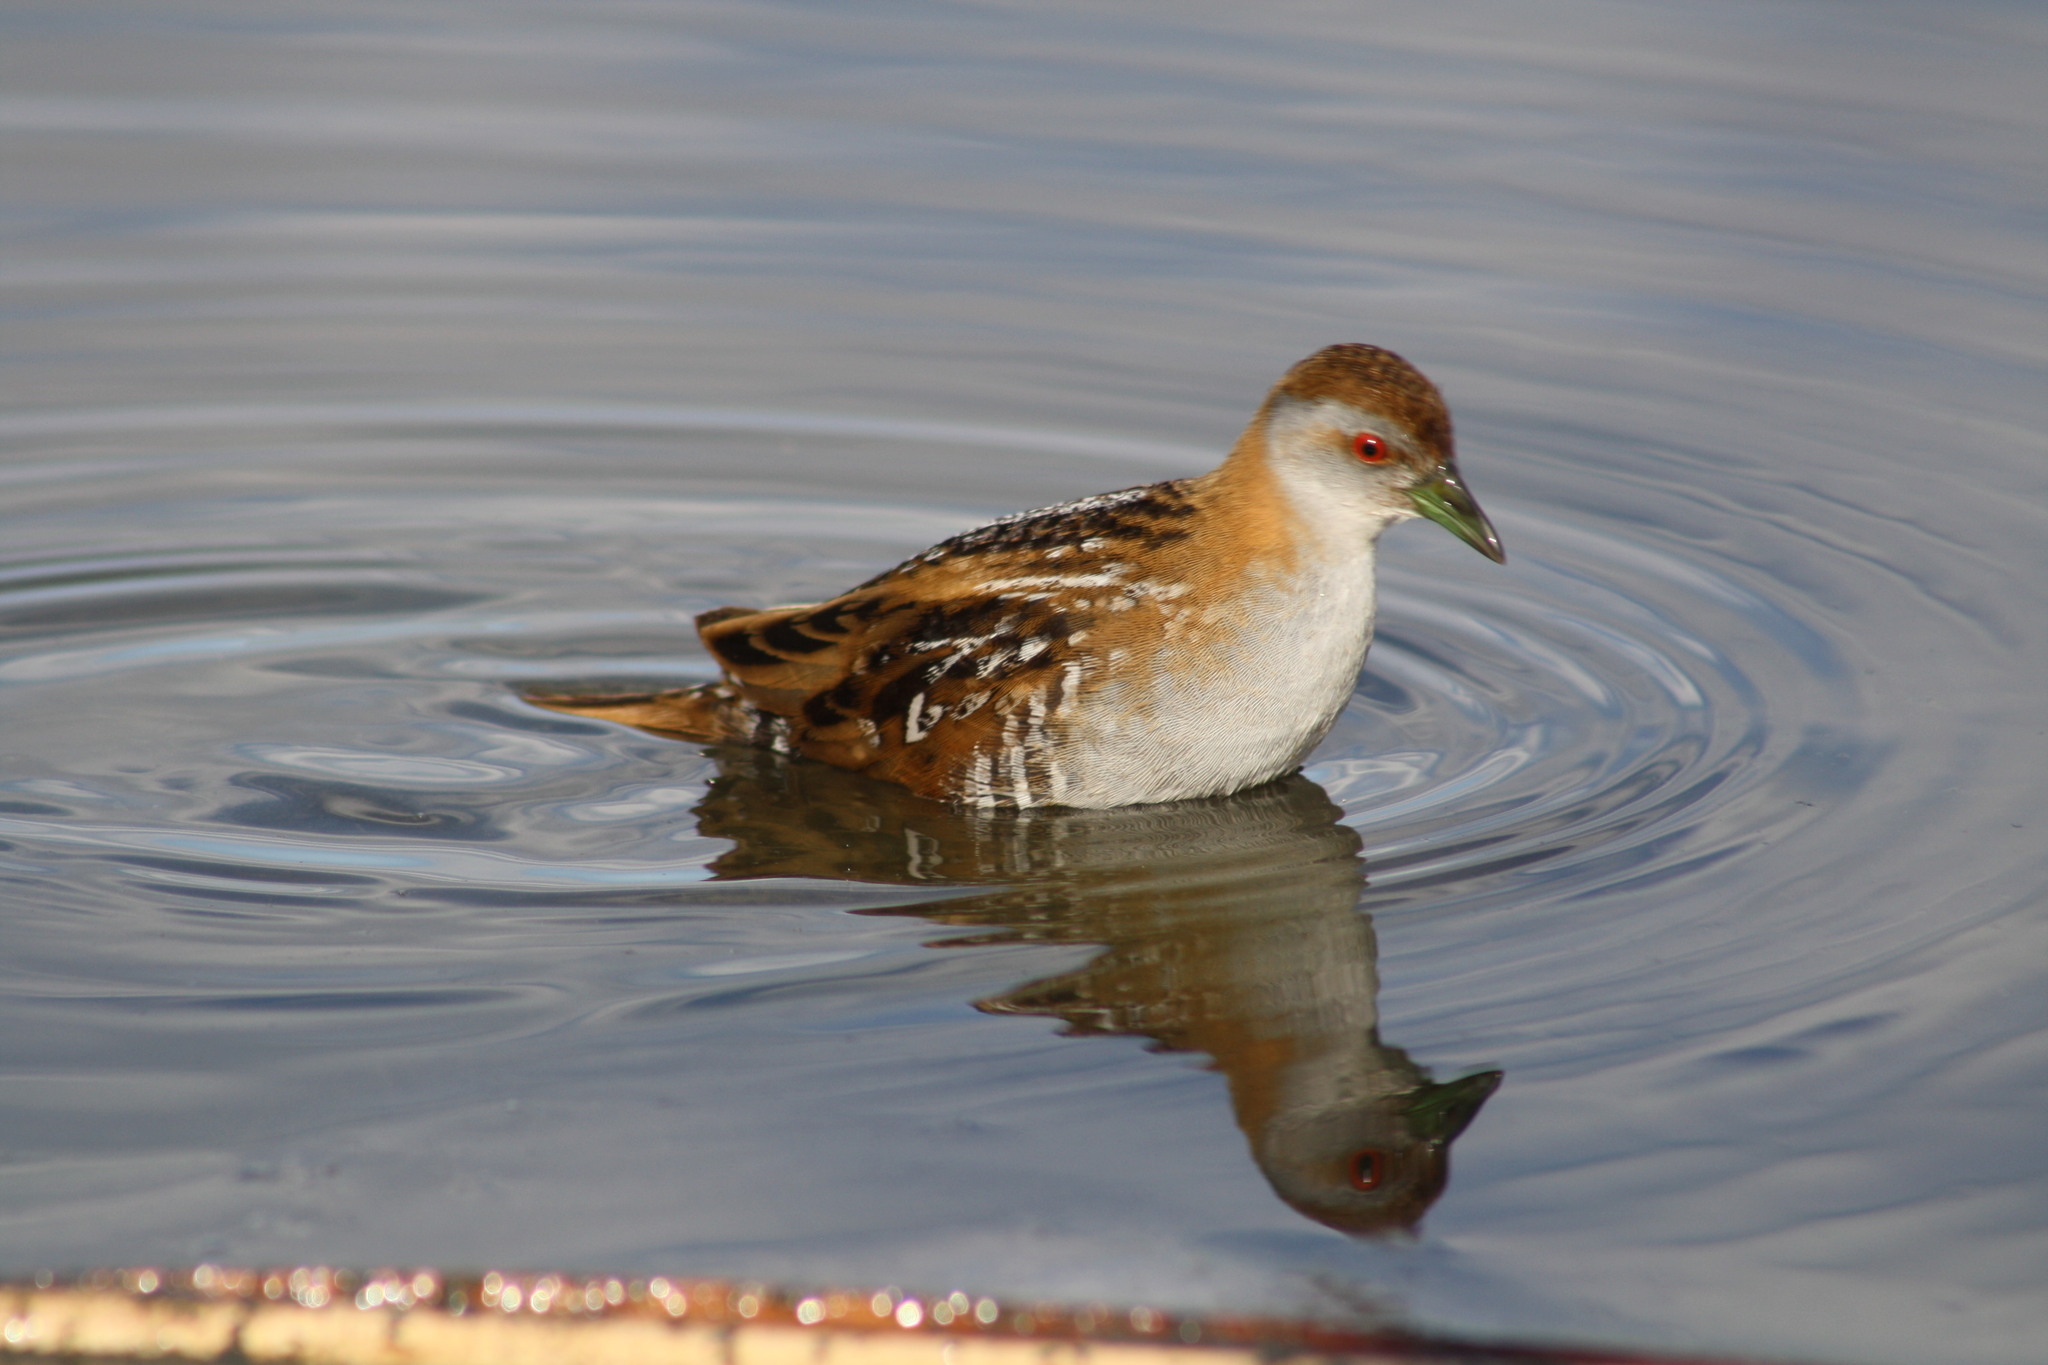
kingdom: Animalia
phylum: Chordata
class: Aves
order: Gruiformes
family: Rallidae
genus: Porzana
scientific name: Porzana pusilla
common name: Baillon's crake
